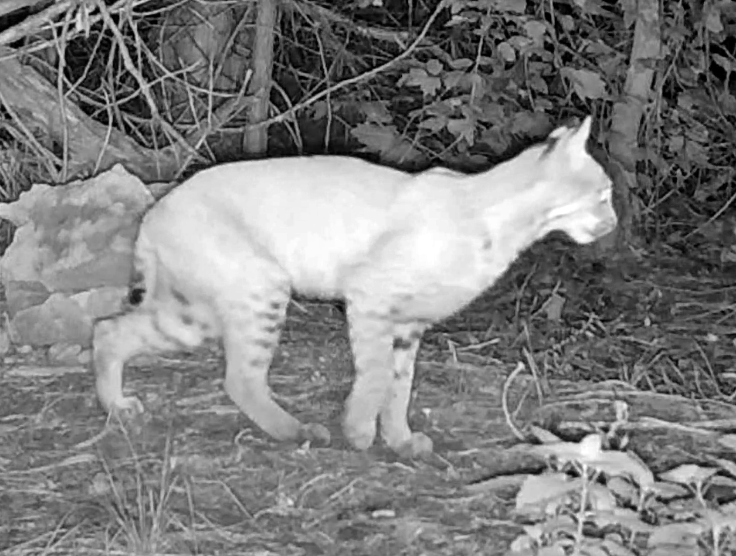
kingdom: Animalia
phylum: Chordata
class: Mammalia
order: Carnivora
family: Felidae
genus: Lynx
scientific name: Lynx rufus
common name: Bobcat
